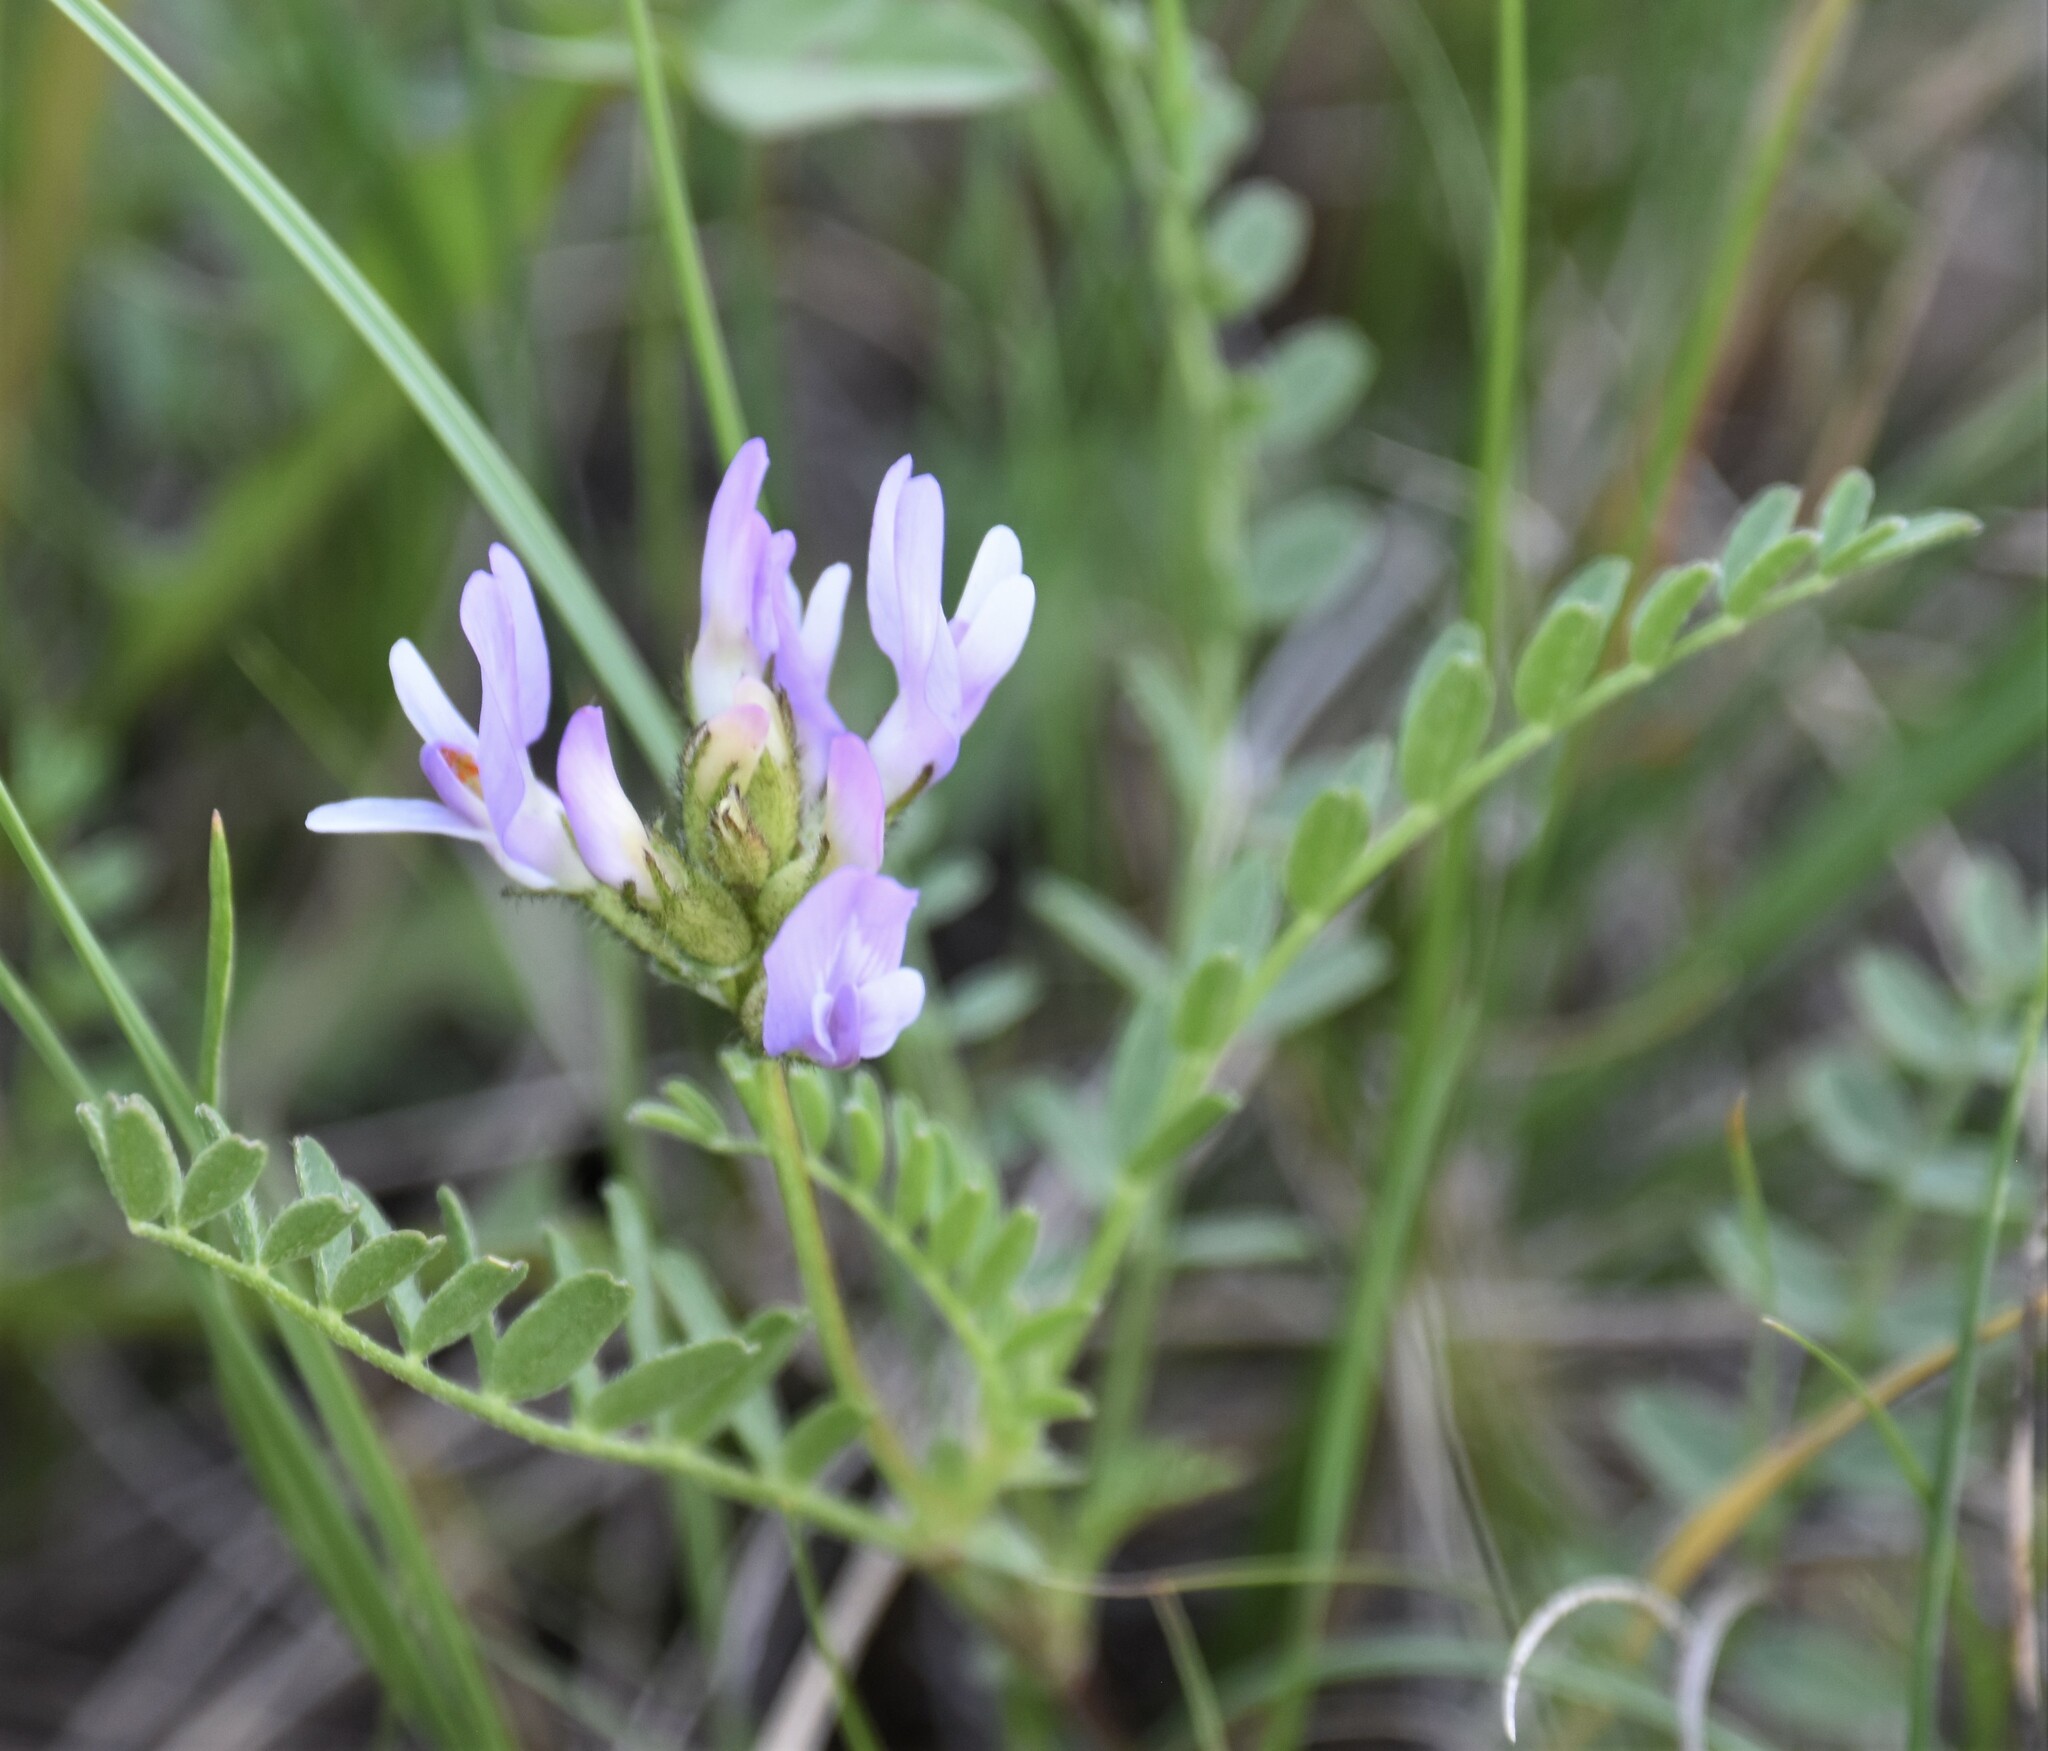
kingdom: Plantae
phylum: Tracheophyta
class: Magnoliopsida
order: Fabales
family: Fabaceae
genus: Astragalus
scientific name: Astragalus agrestis
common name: Field milk-vetch
